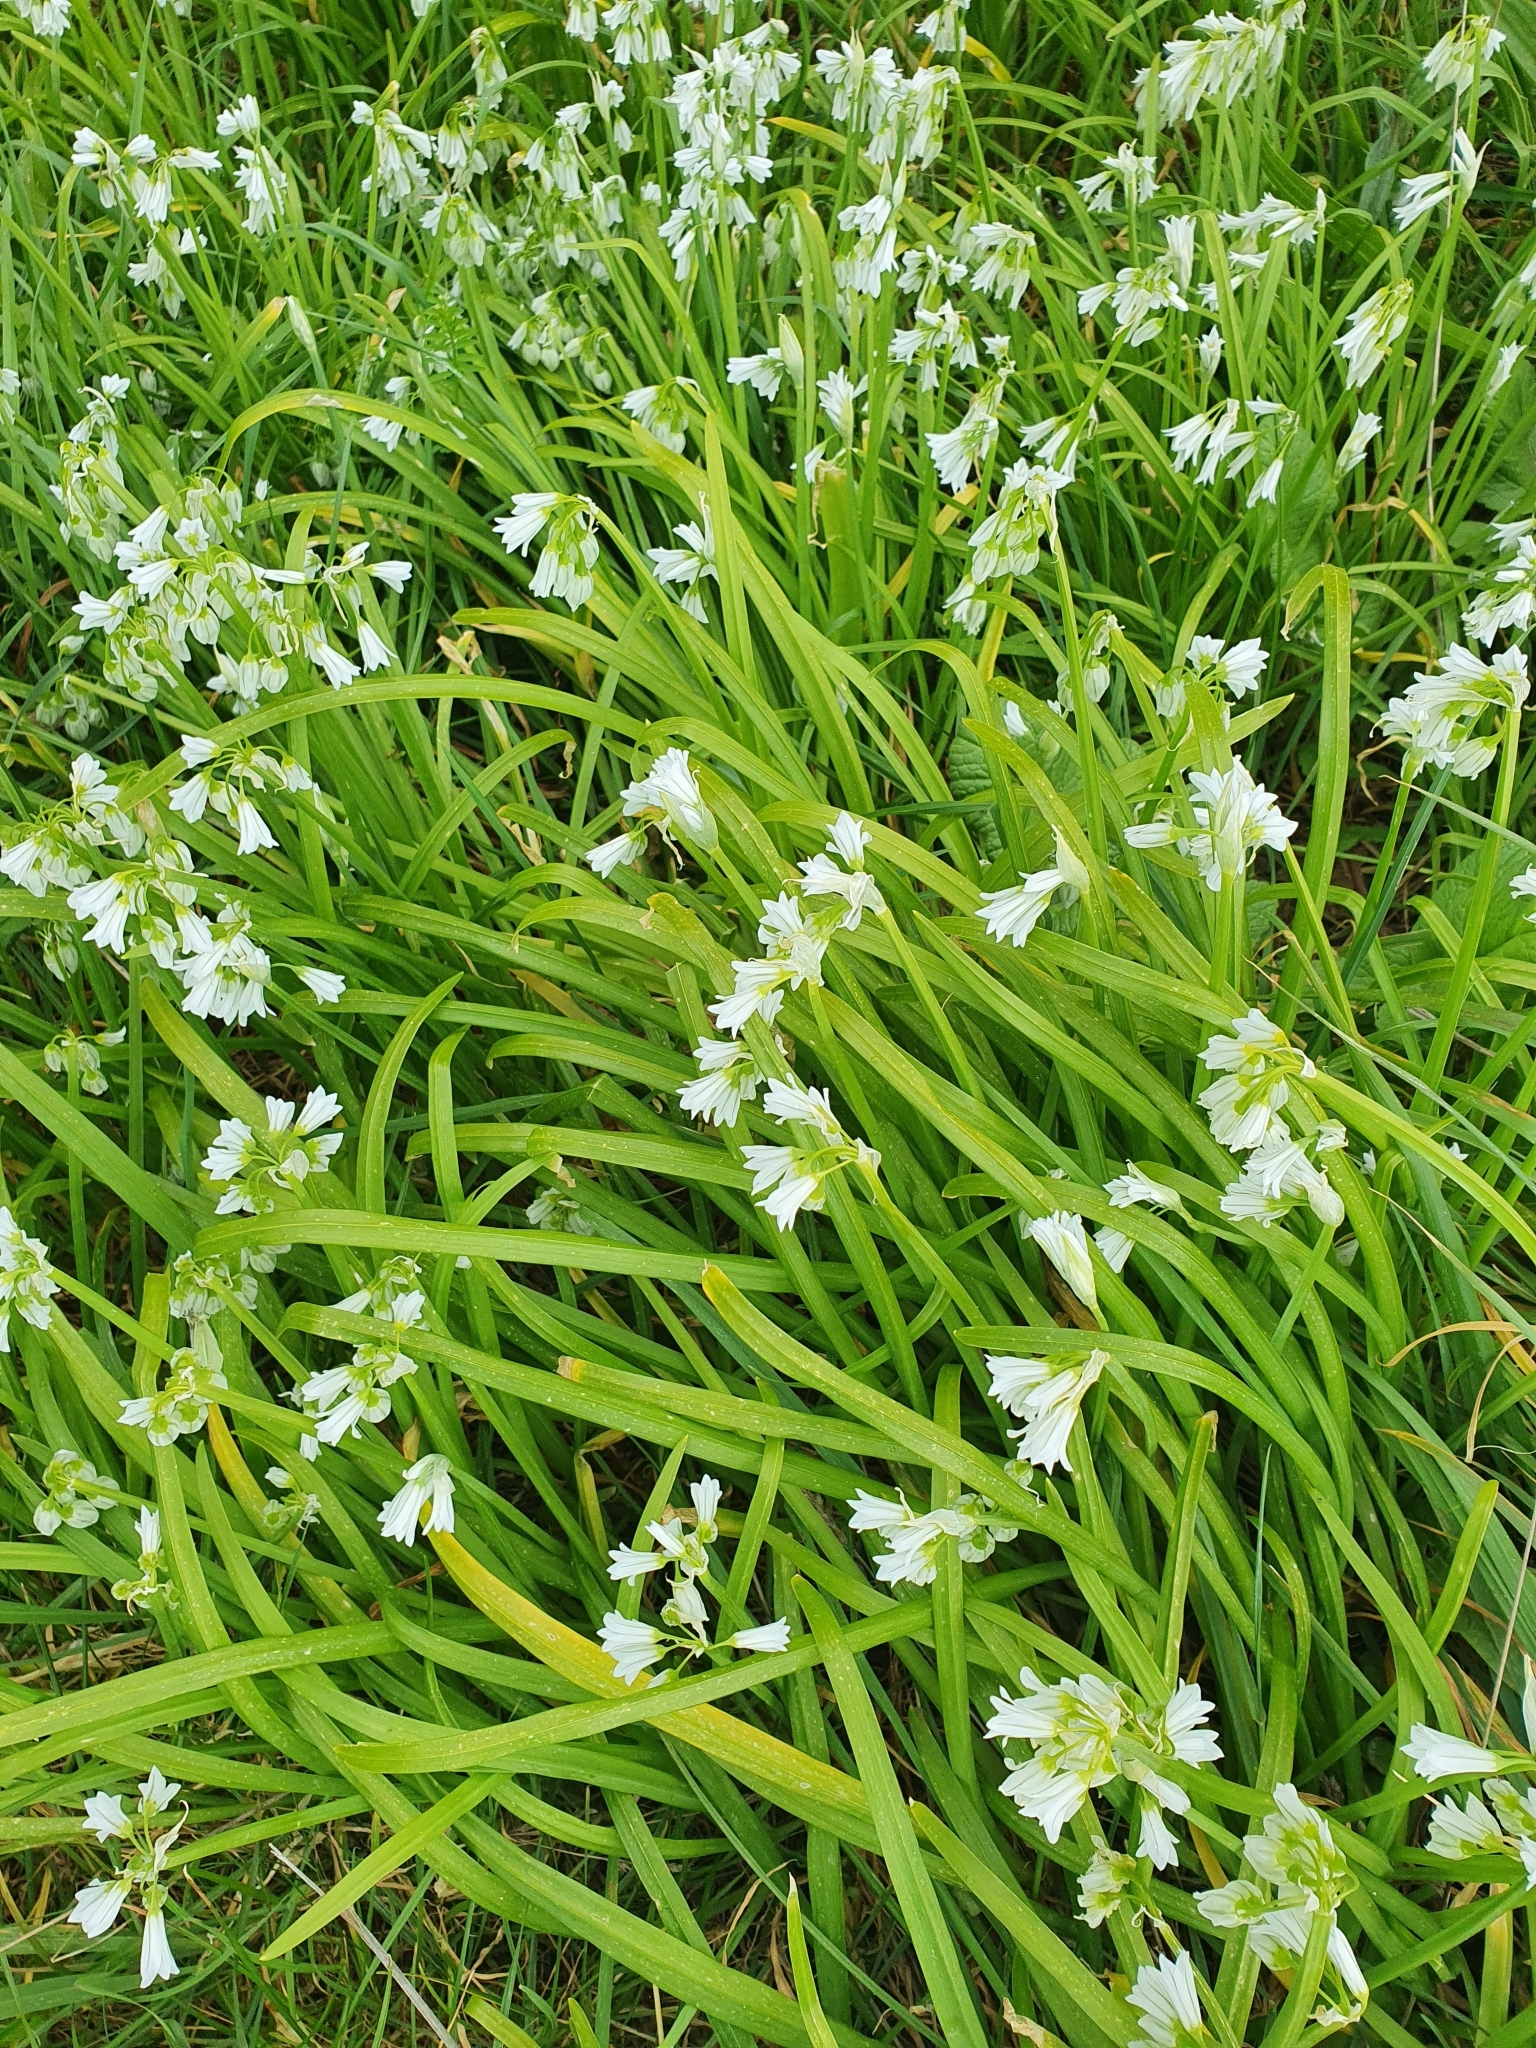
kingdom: Plantae
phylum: Tracheophyta
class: Liliopsida
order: Asparagales
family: Amaryllidaceae
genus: Allium
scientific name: Allium triquetrum
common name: Three-cornered garlic
